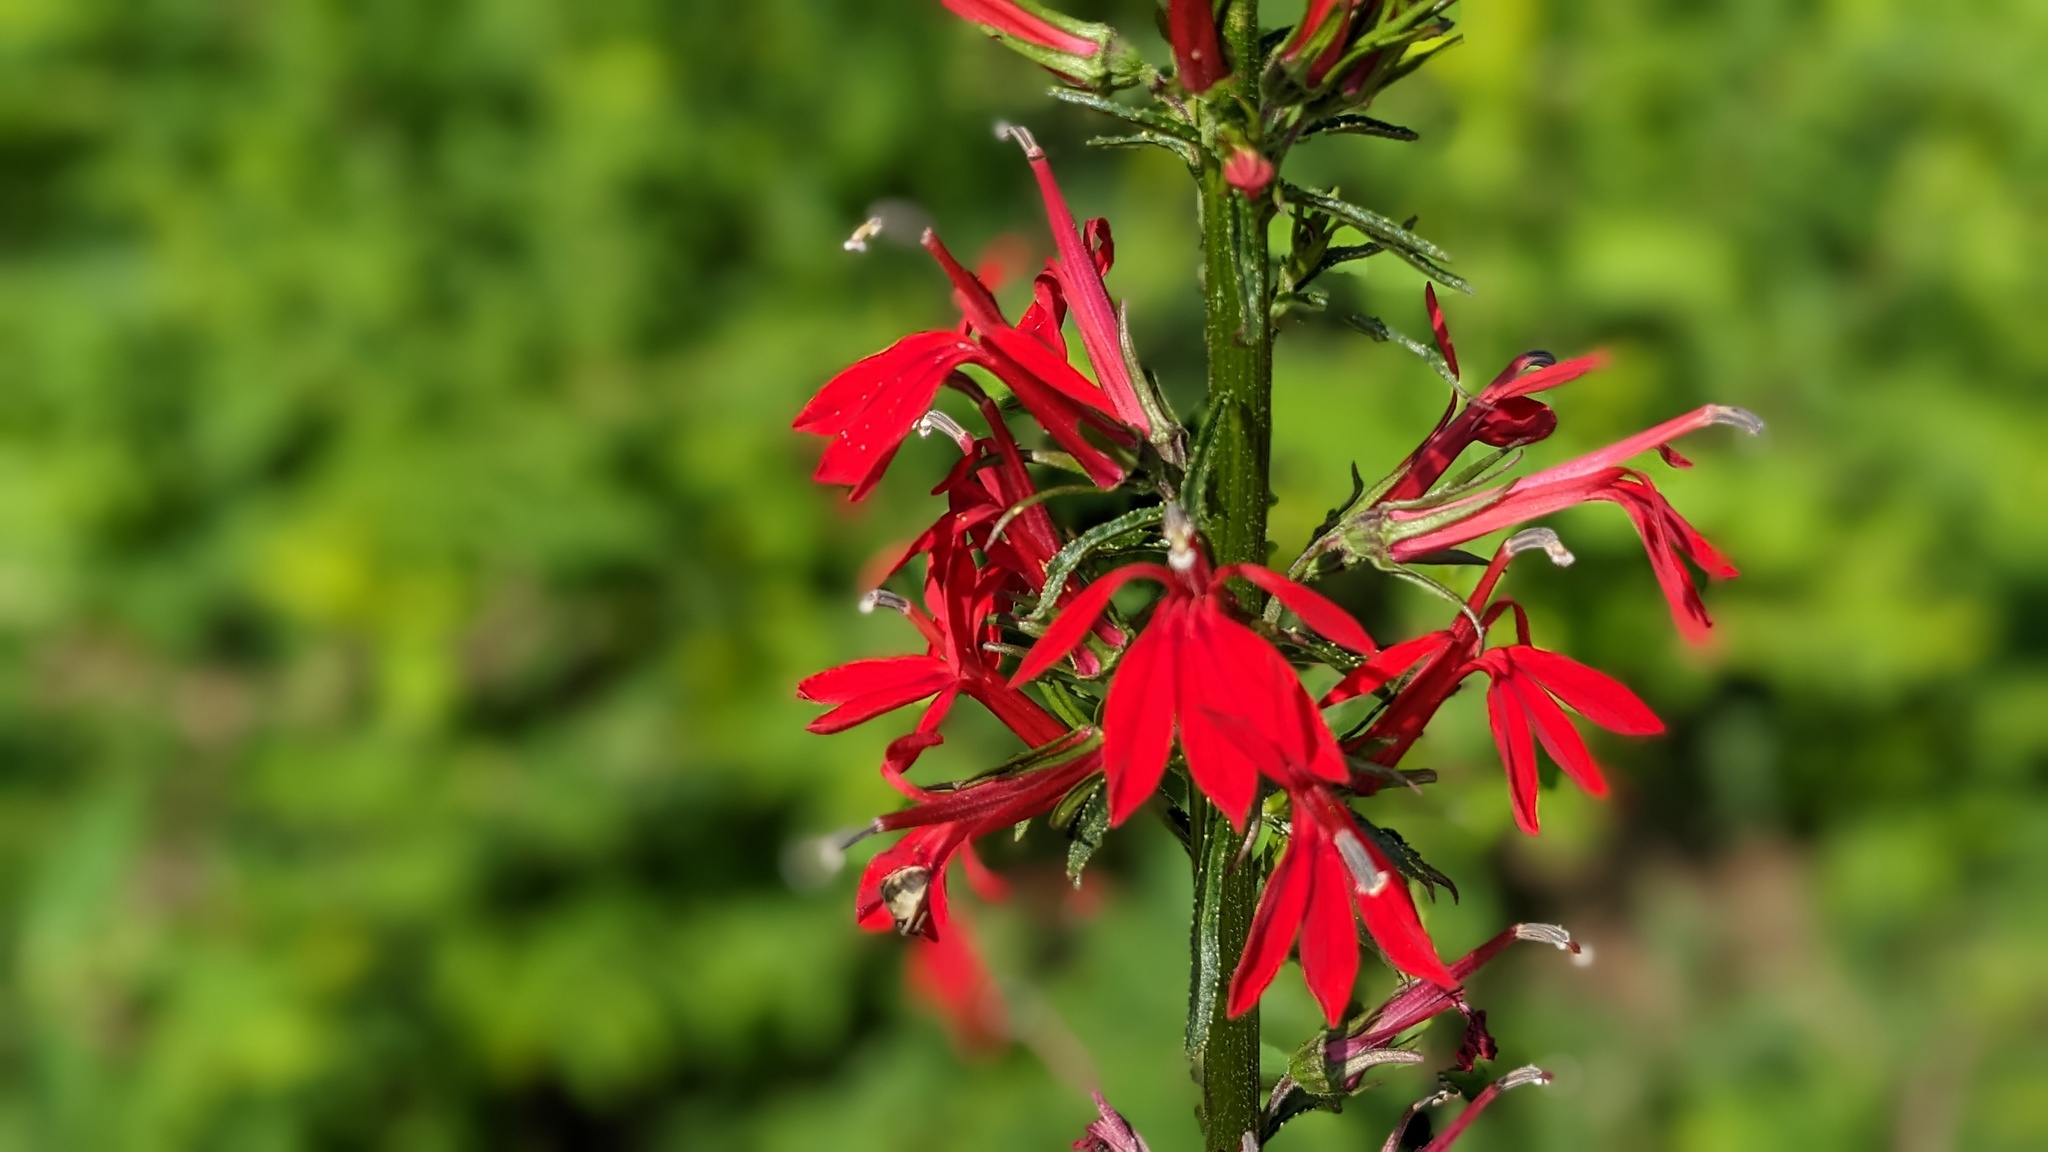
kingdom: Plantae
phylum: Tracheophyta
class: Magnoliopsida
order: Asterales
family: Campanulaceae
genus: Lobelia
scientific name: Lobelia cardinalis
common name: Cardinal flower
